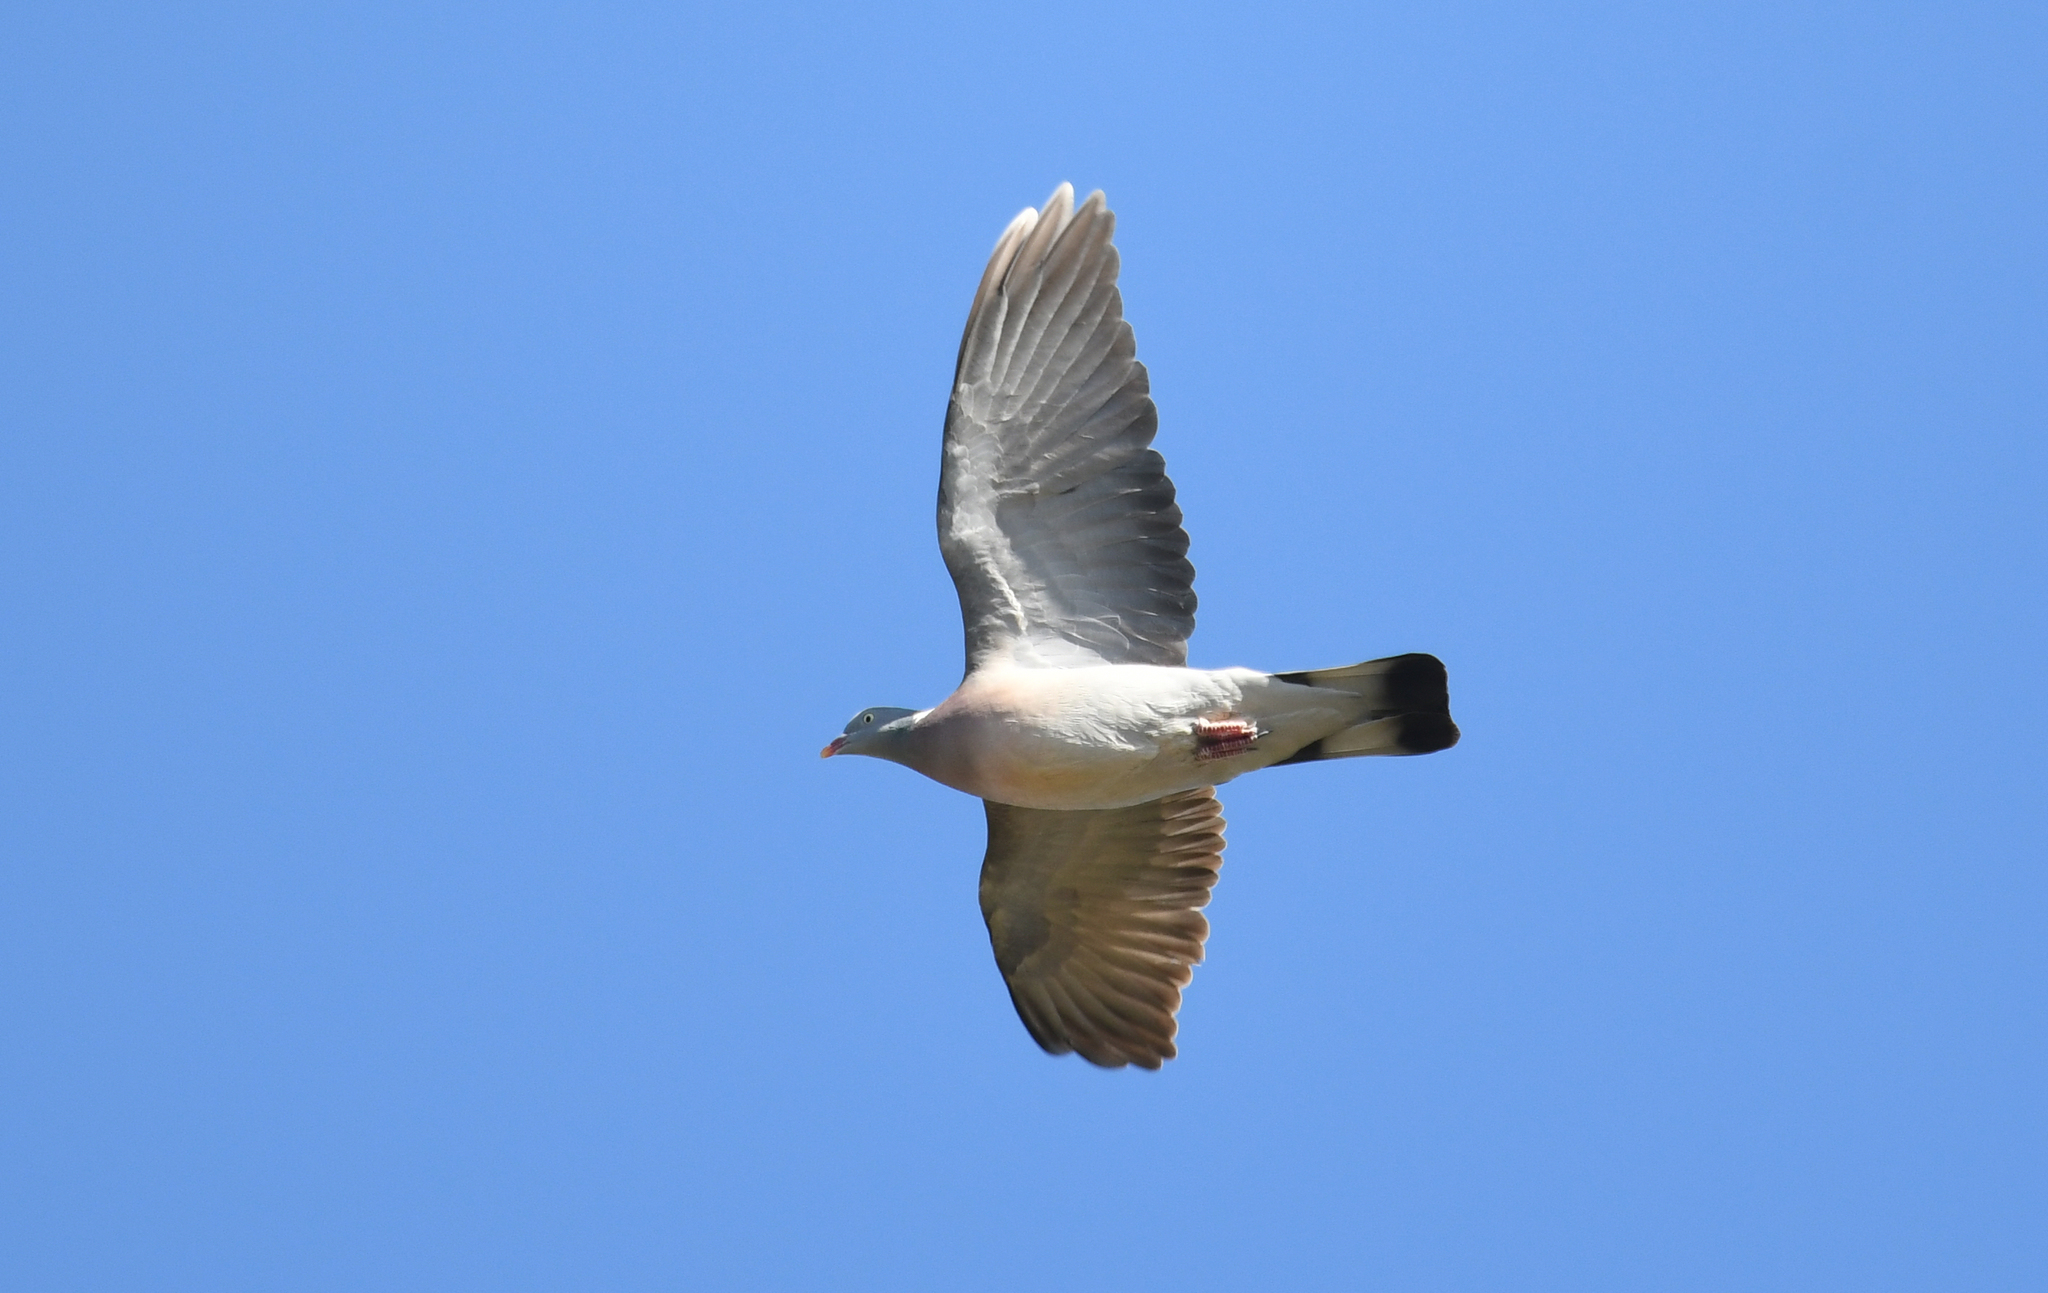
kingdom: Animalia
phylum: Chordata
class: Aves
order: Columbiformes
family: Columbidae
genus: Columba
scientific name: Columba palumbus
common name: Common wood pigeon
